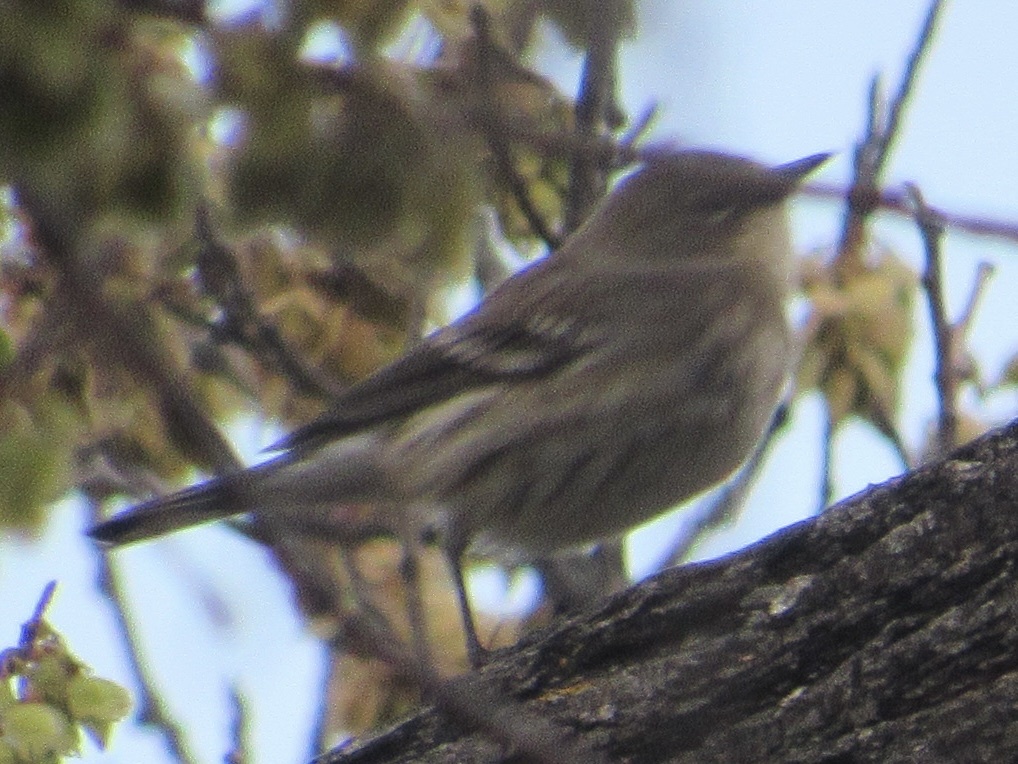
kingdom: Animalia
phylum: Chordata
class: Aves
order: Passeriformes
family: Parulidae
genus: Setophaga
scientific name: Setophaga coronata
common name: Myrtle warbler
